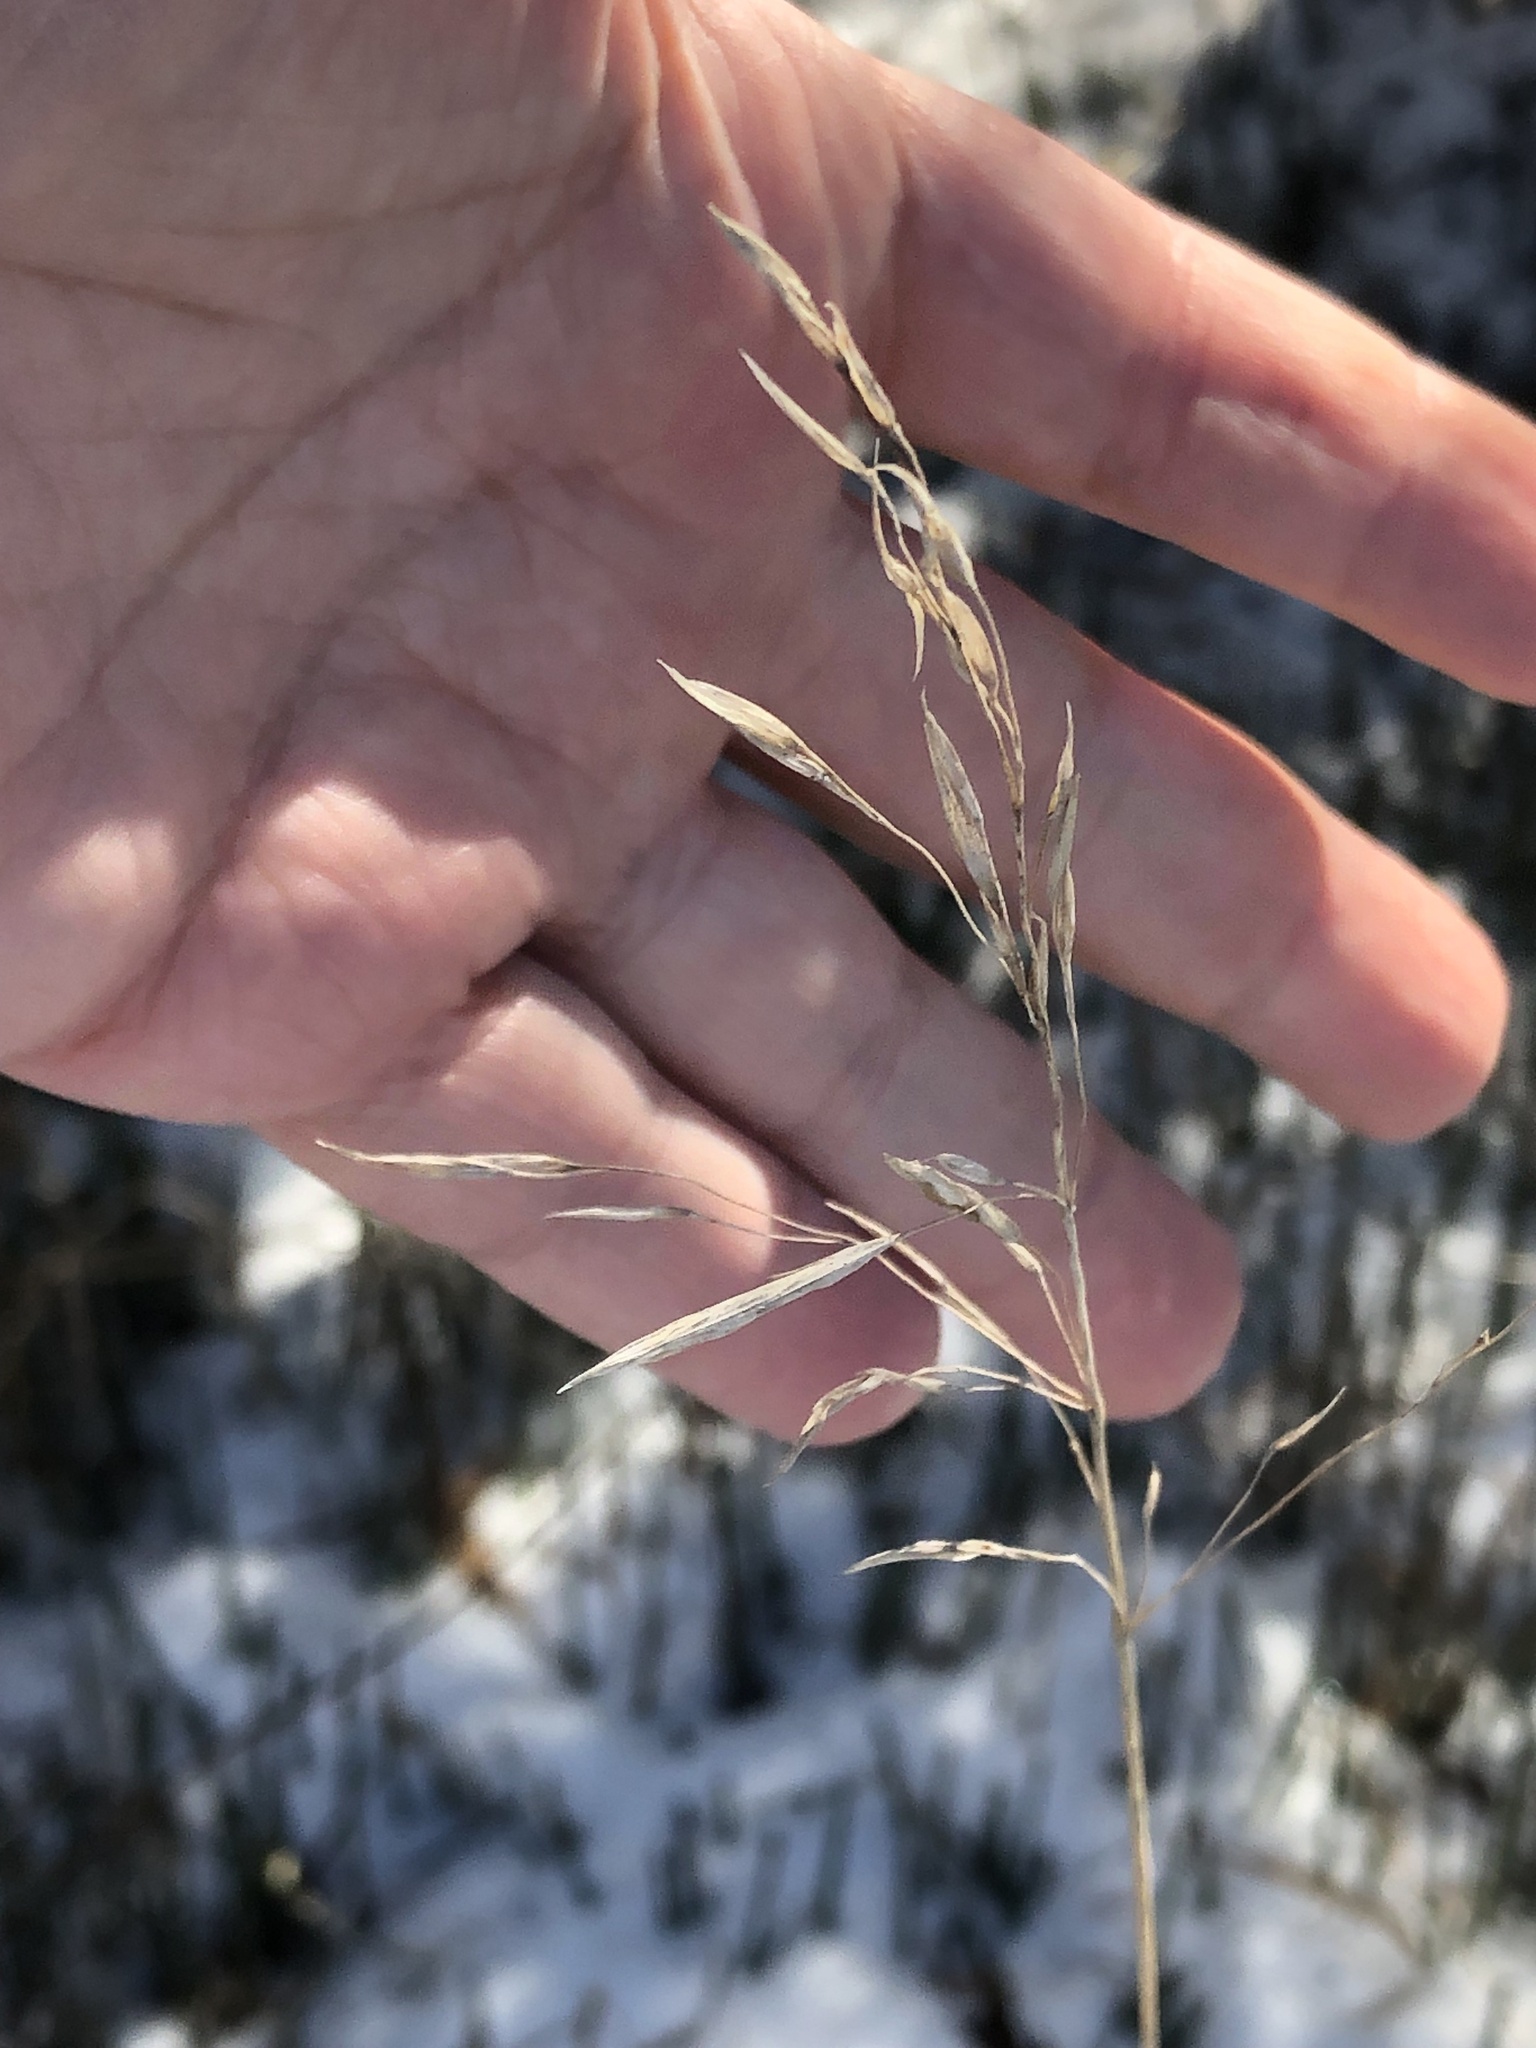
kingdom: Plantae
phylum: Tracheophyta
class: Liliopsida
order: Poales
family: Poaceae
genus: Bromus
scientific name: Bromus inermis
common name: Smooth brome
